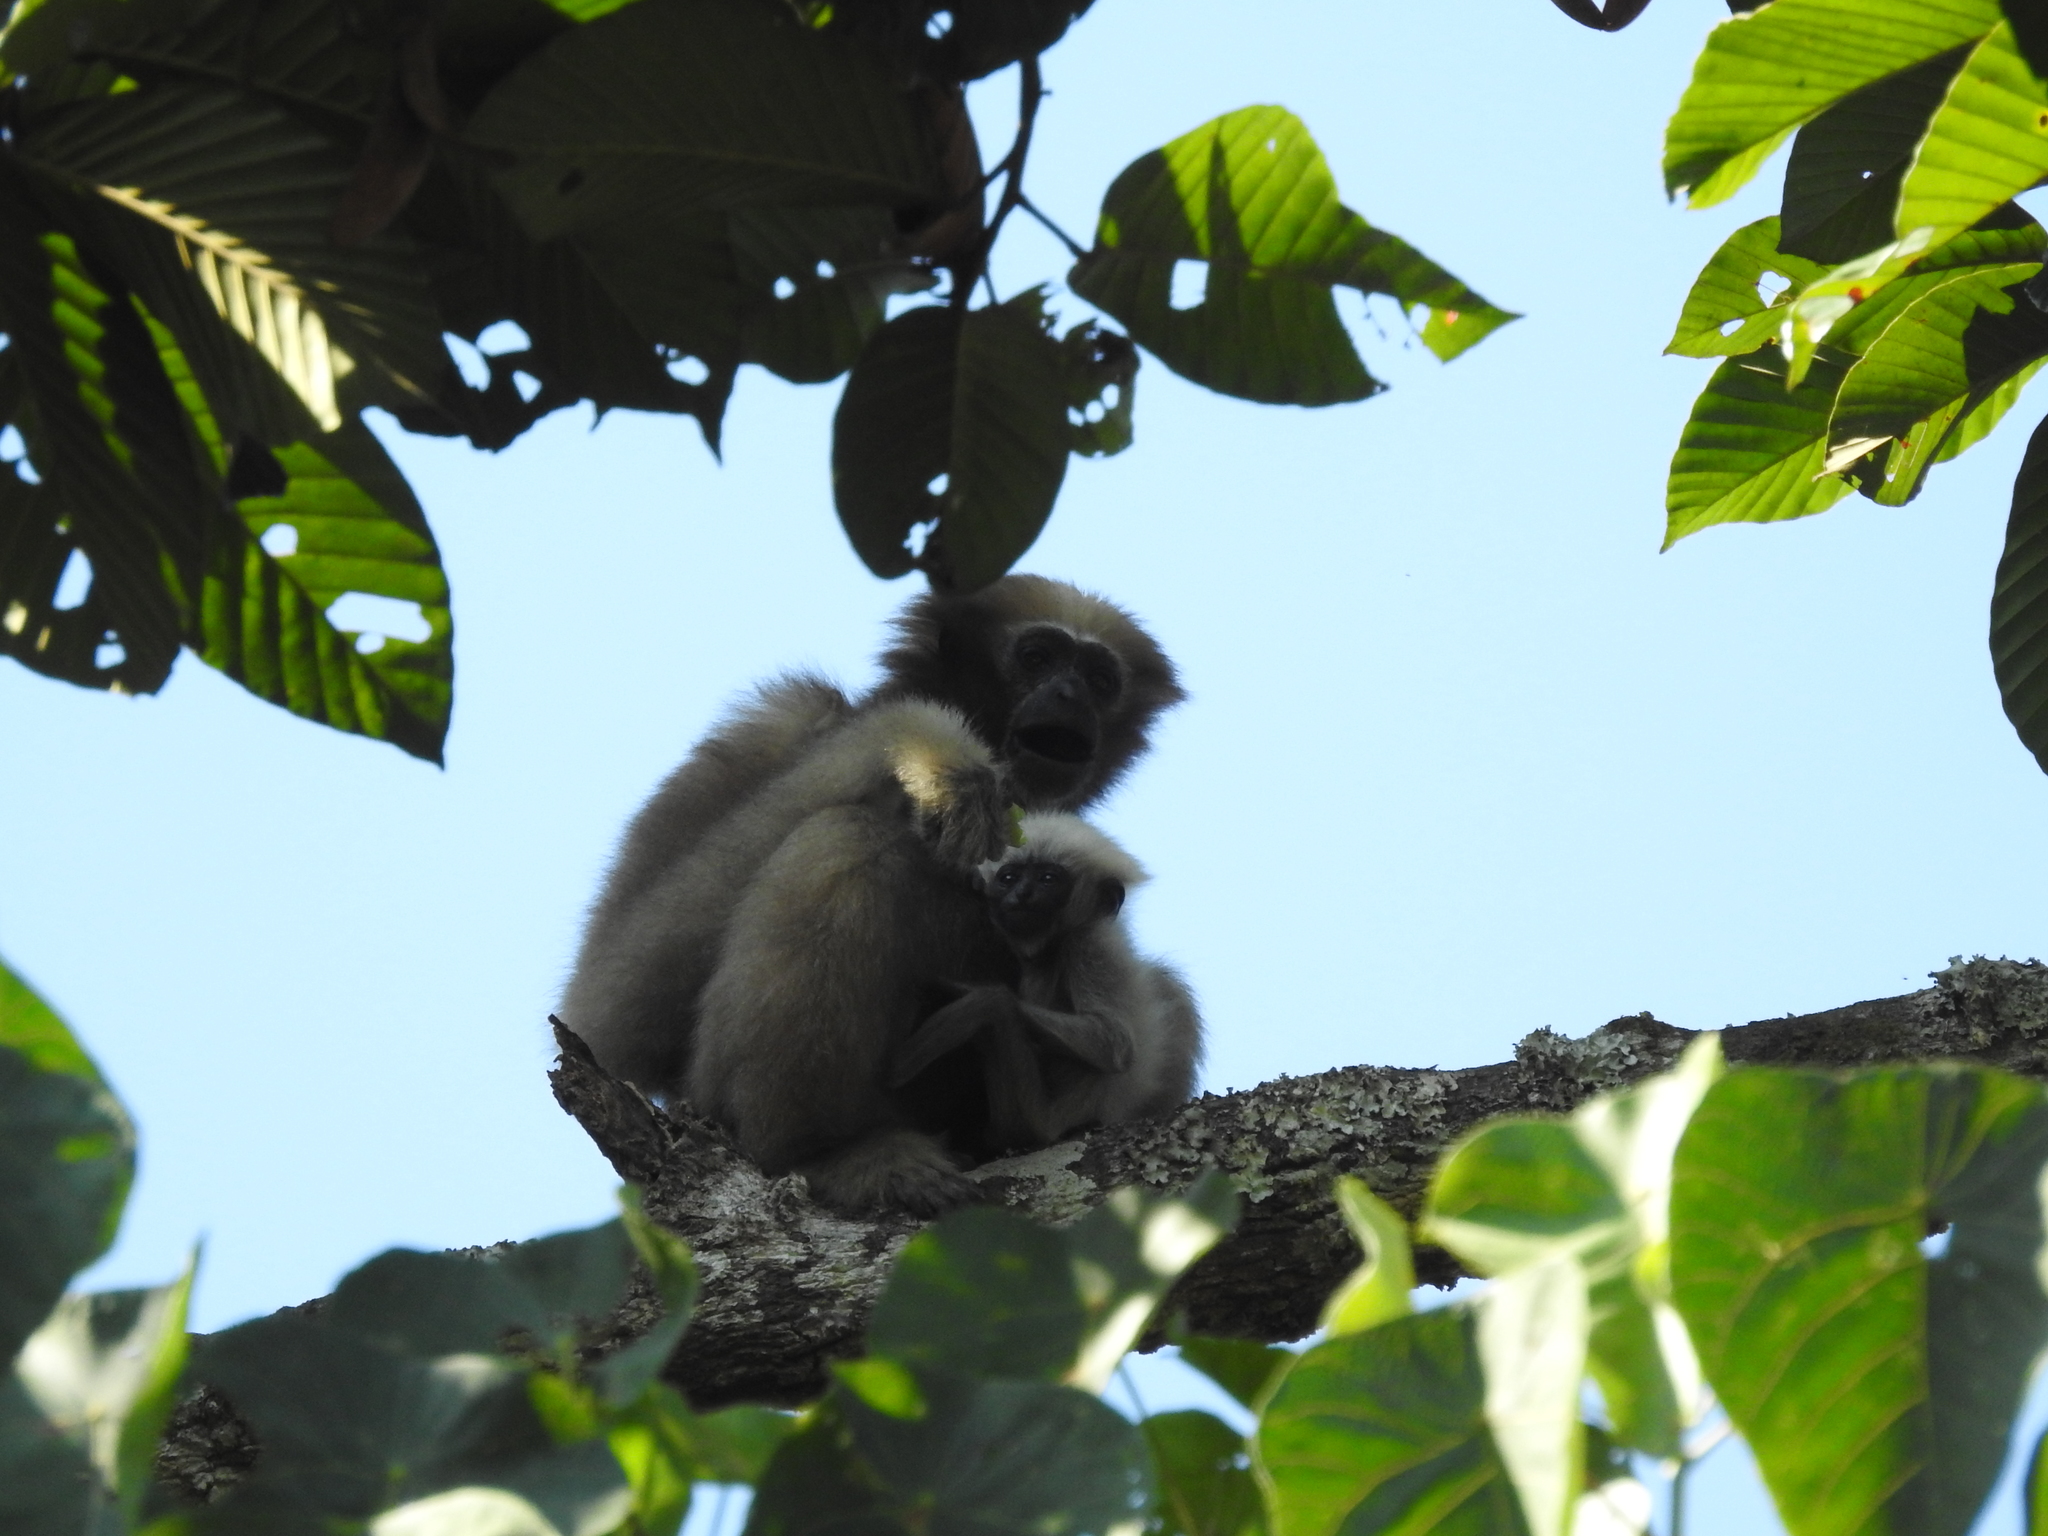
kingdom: Animalia
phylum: Chordata
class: Mammalia
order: Primates
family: Hylobatidae
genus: Hoolock
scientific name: Hoolock hoolock
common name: Western hoolock gibbon
